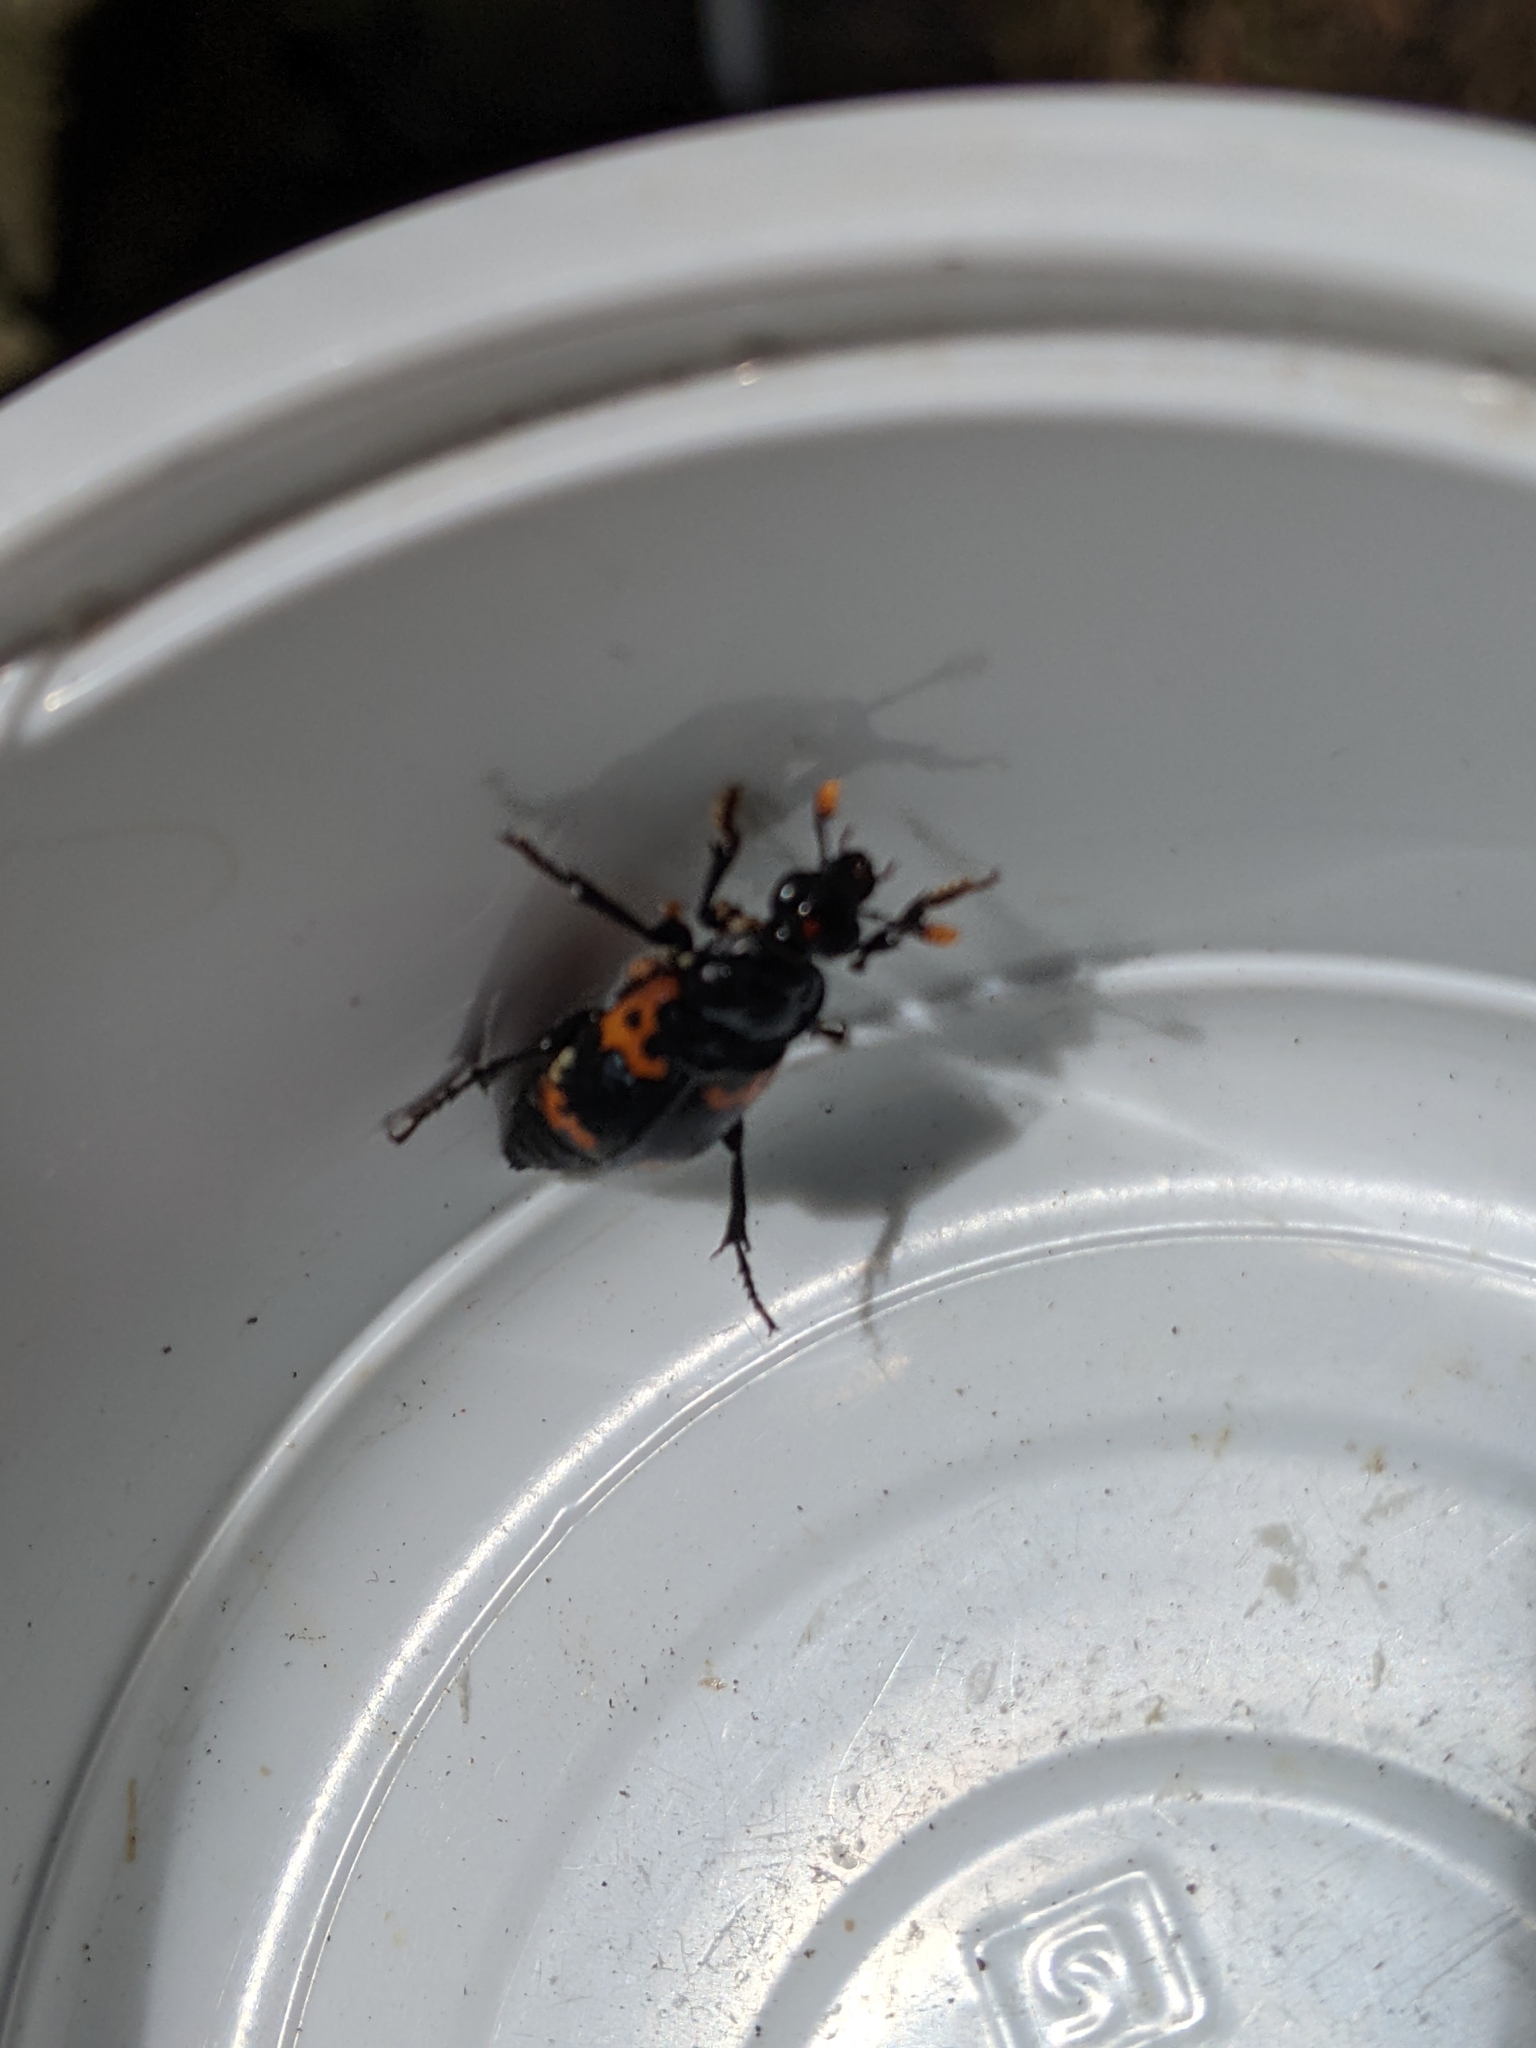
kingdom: Animalia
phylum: Arthropoda
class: Insecta
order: Coleoptera
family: Staphylinidae
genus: Nicrophorus
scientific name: Nicrophorus nepalensis
